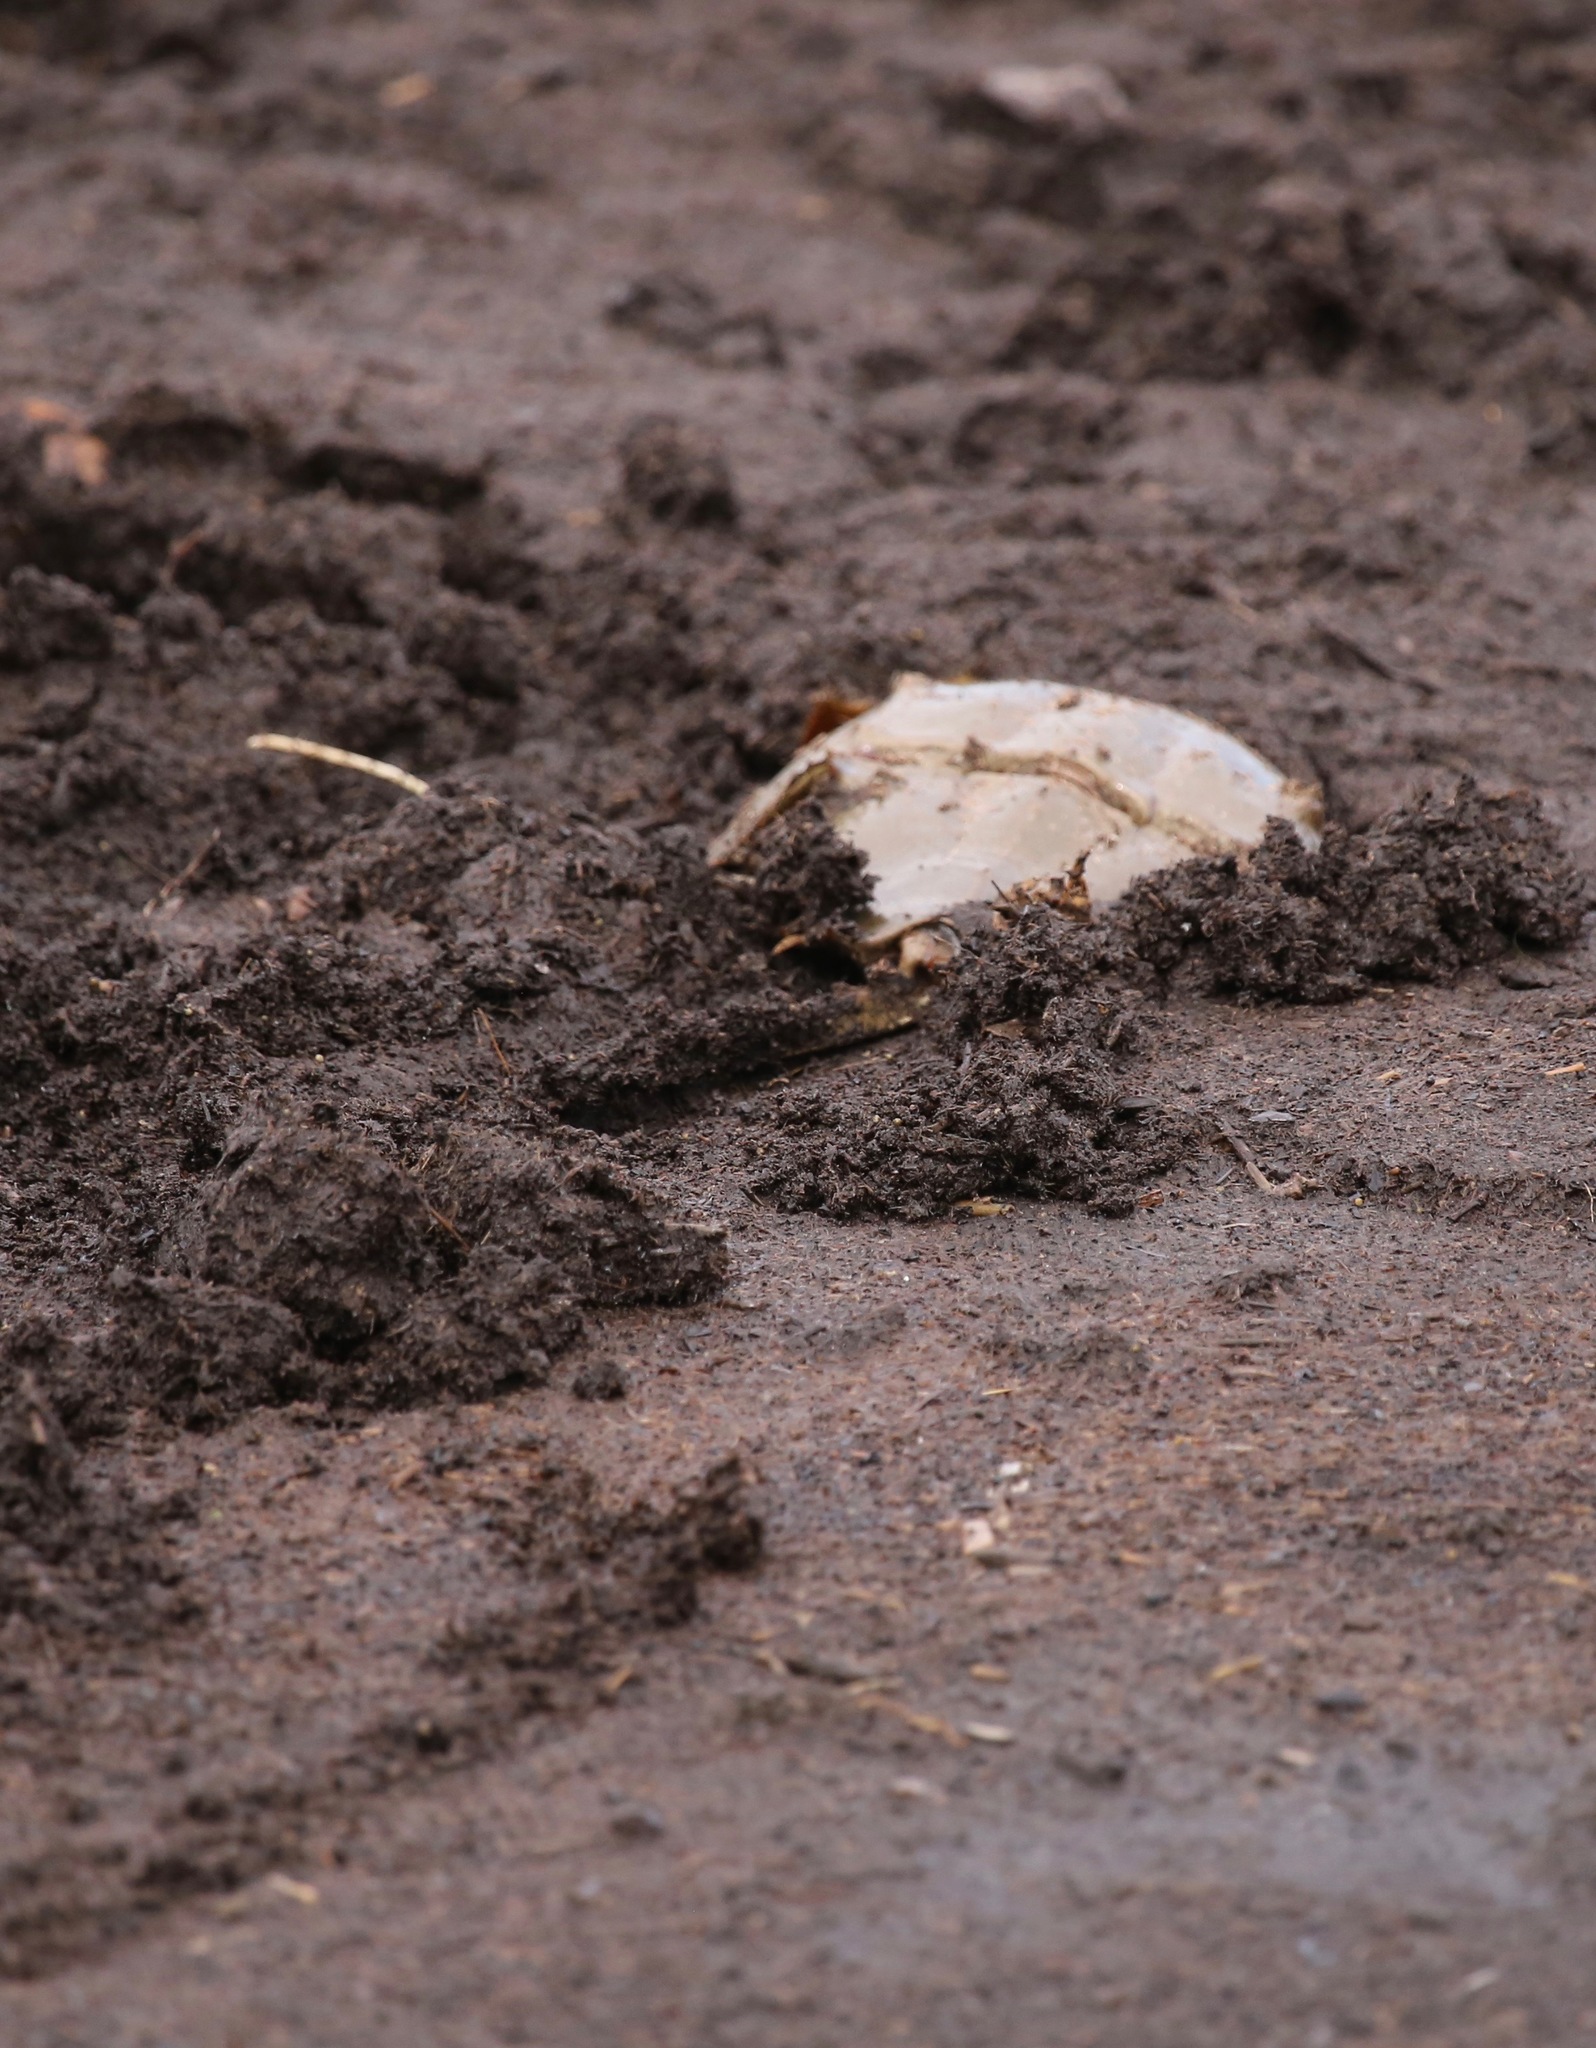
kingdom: Animalia
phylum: Arthropoda
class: Merostomata
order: Xiphosurida
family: Limulidae
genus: Limulus
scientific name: Limulus polyphemus
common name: Horseshoe crab
